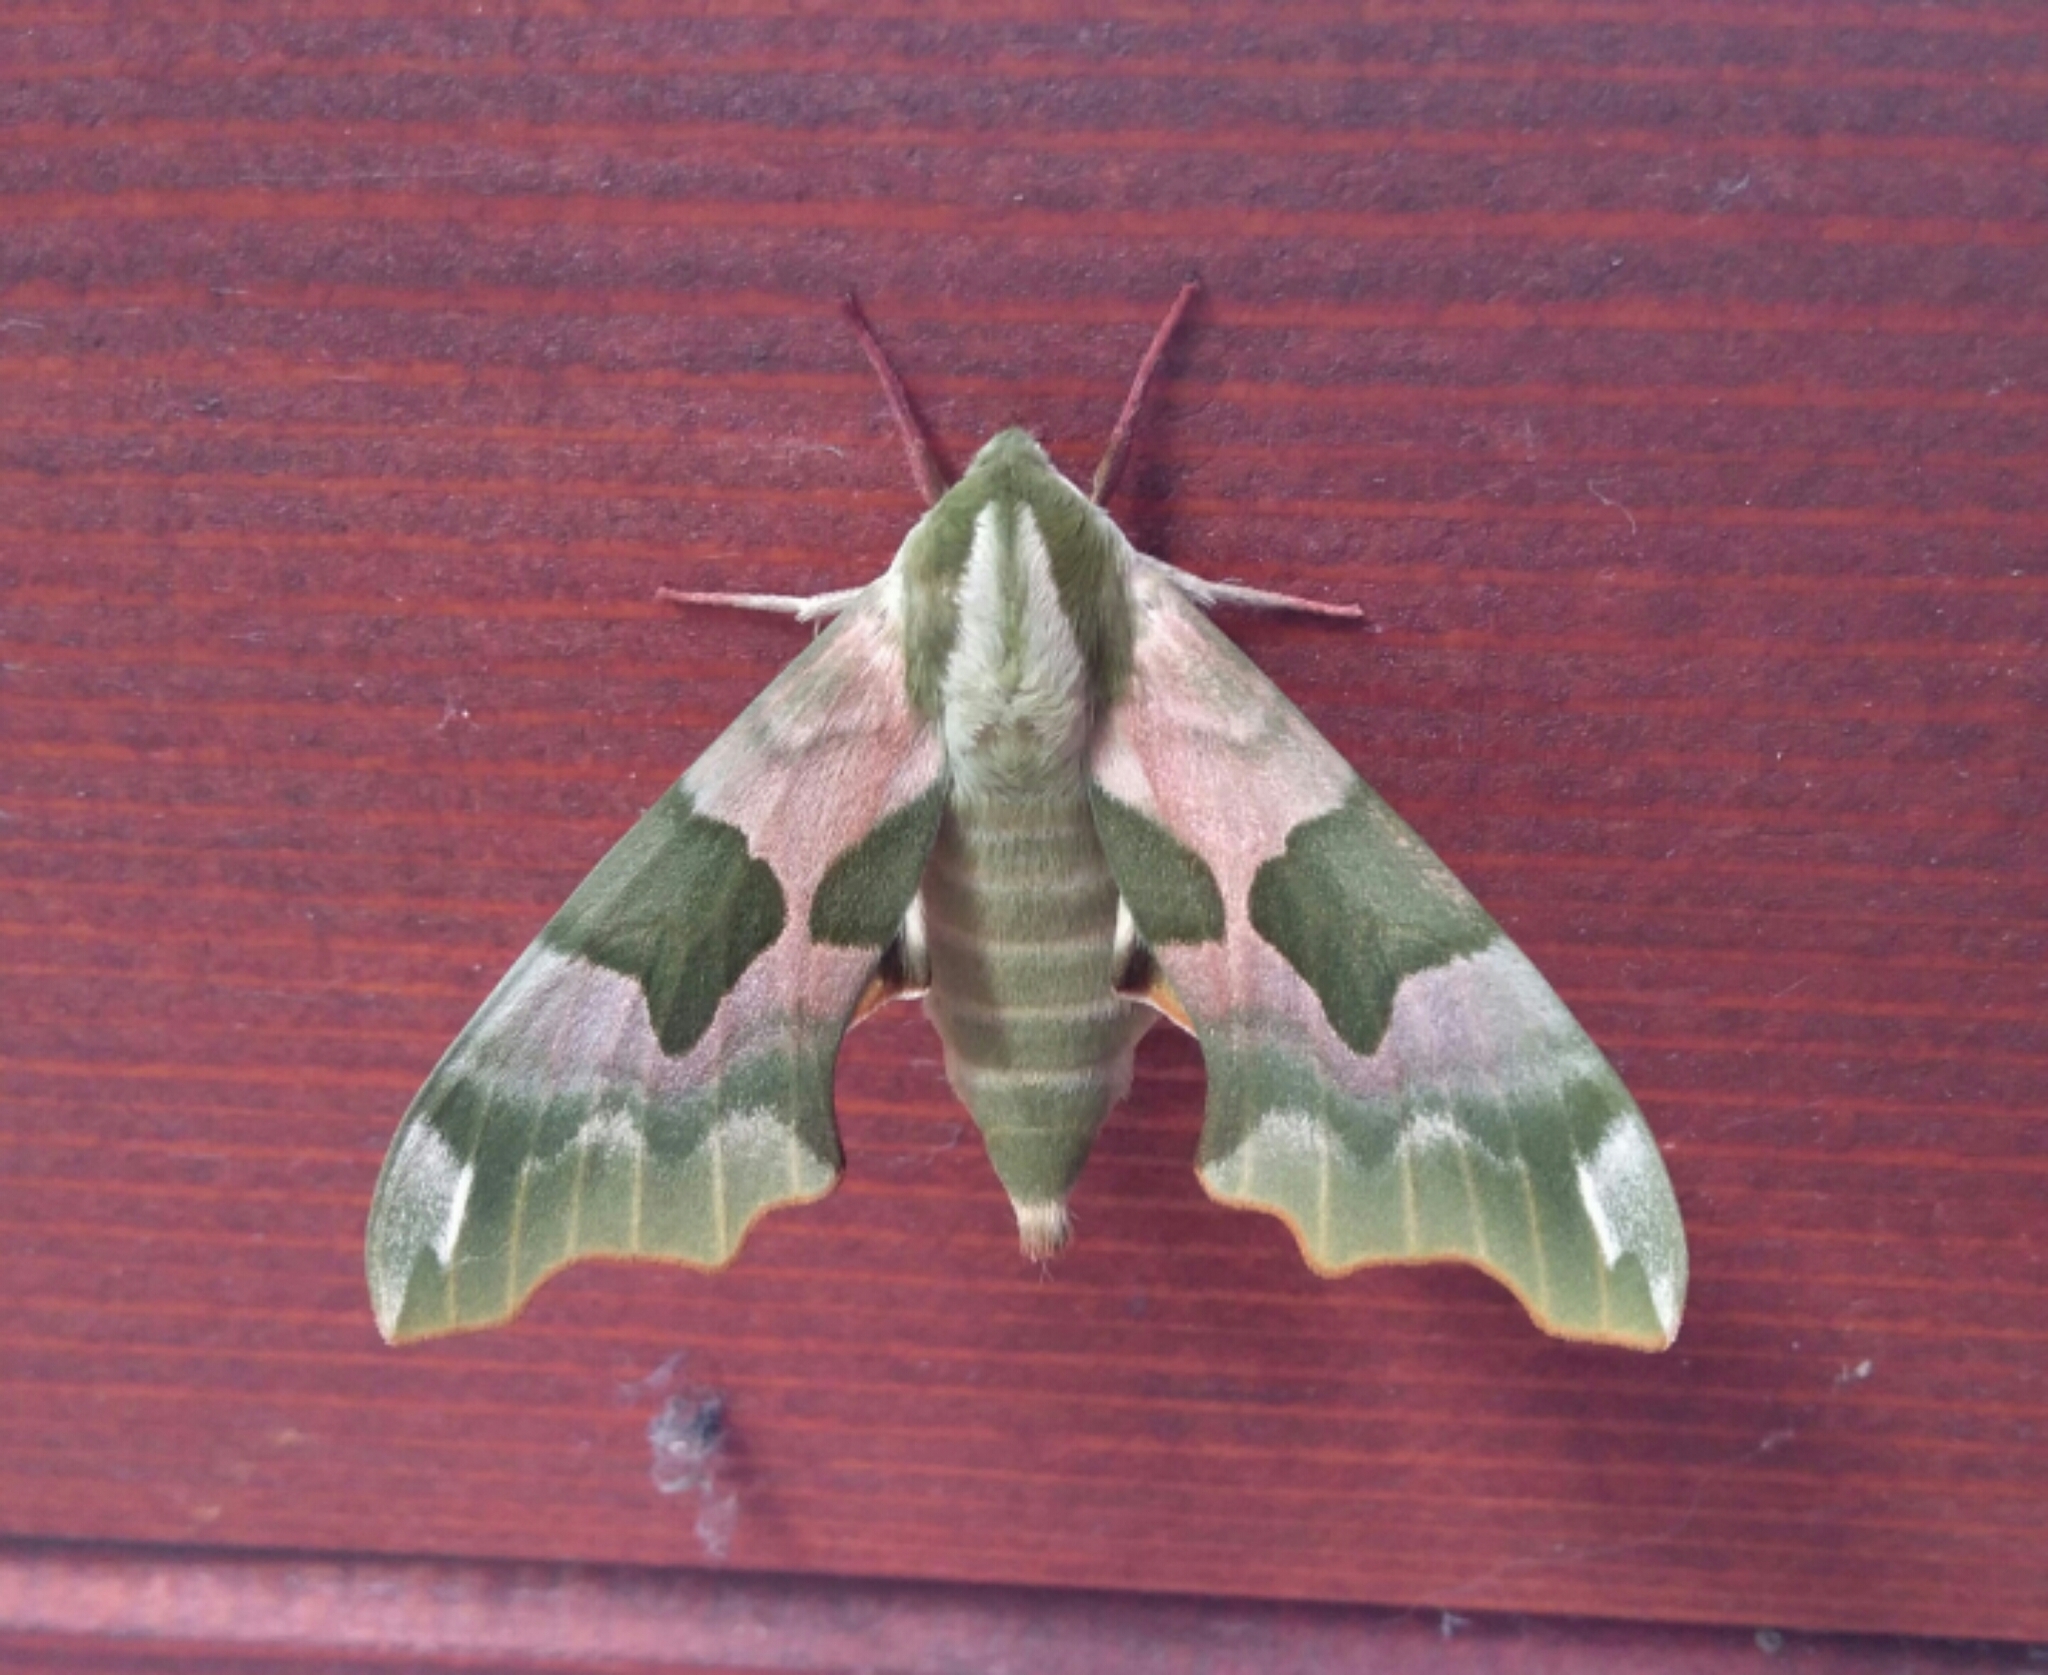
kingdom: Animalia
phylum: Arthropoda
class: Insecta
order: Lepidoptera
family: Sphingidae
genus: Mimas
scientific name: Mimas tiliae
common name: Lime hawk-moth
